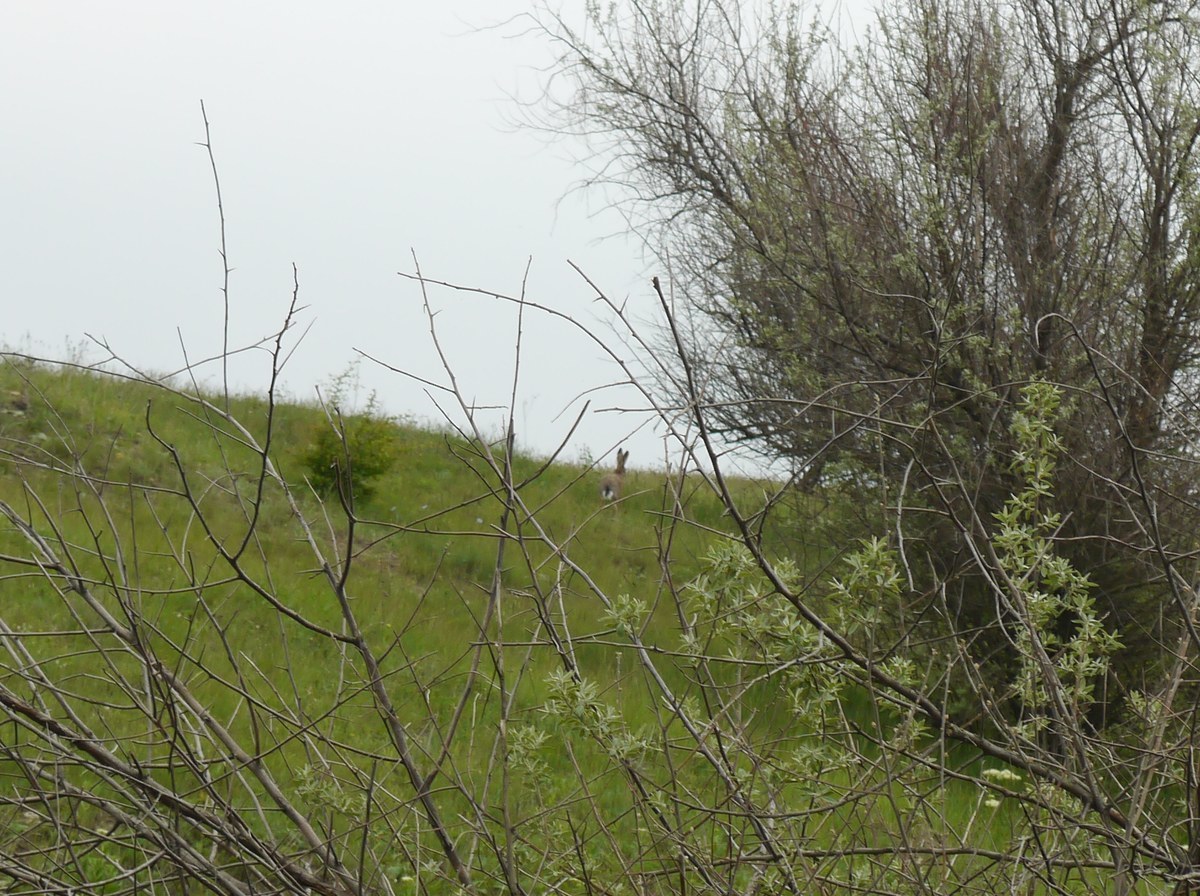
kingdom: Animalia
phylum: Chordata
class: Mammalia
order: Lagomorpha
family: Leporidae
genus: Lepus
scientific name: Lepus europaeus
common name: European hare
